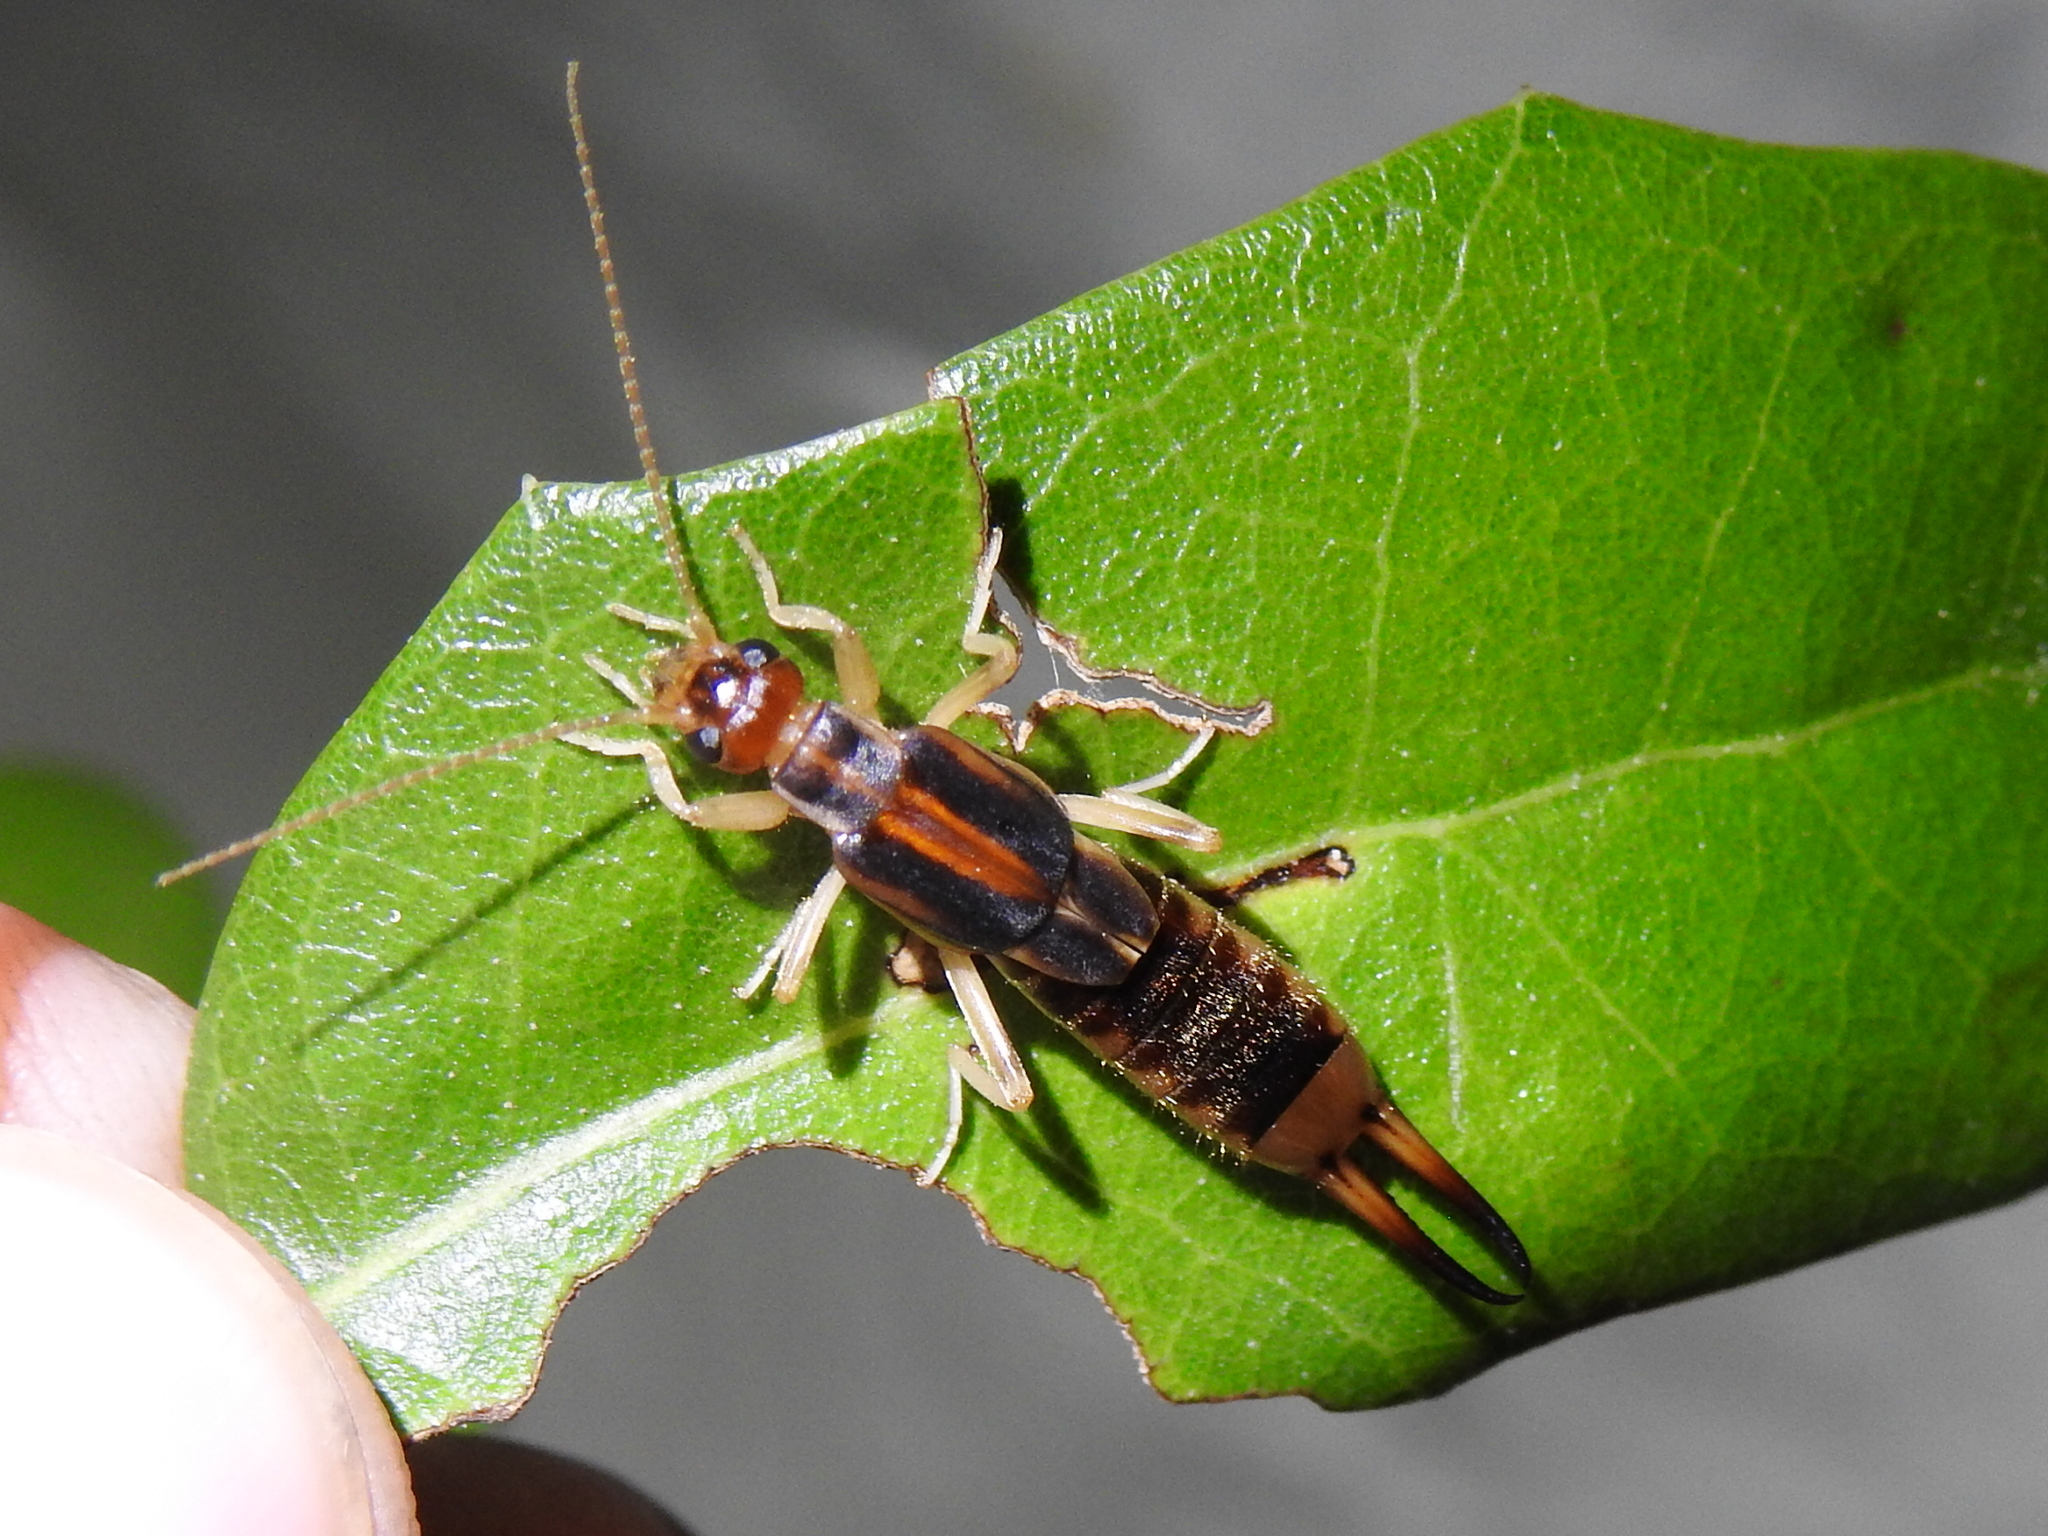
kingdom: Animalia
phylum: Arthropoda
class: Insecta
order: Dermaptera
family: Labiduridae
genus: Labidura
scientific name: Labidura riparia
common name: Striped earwig
